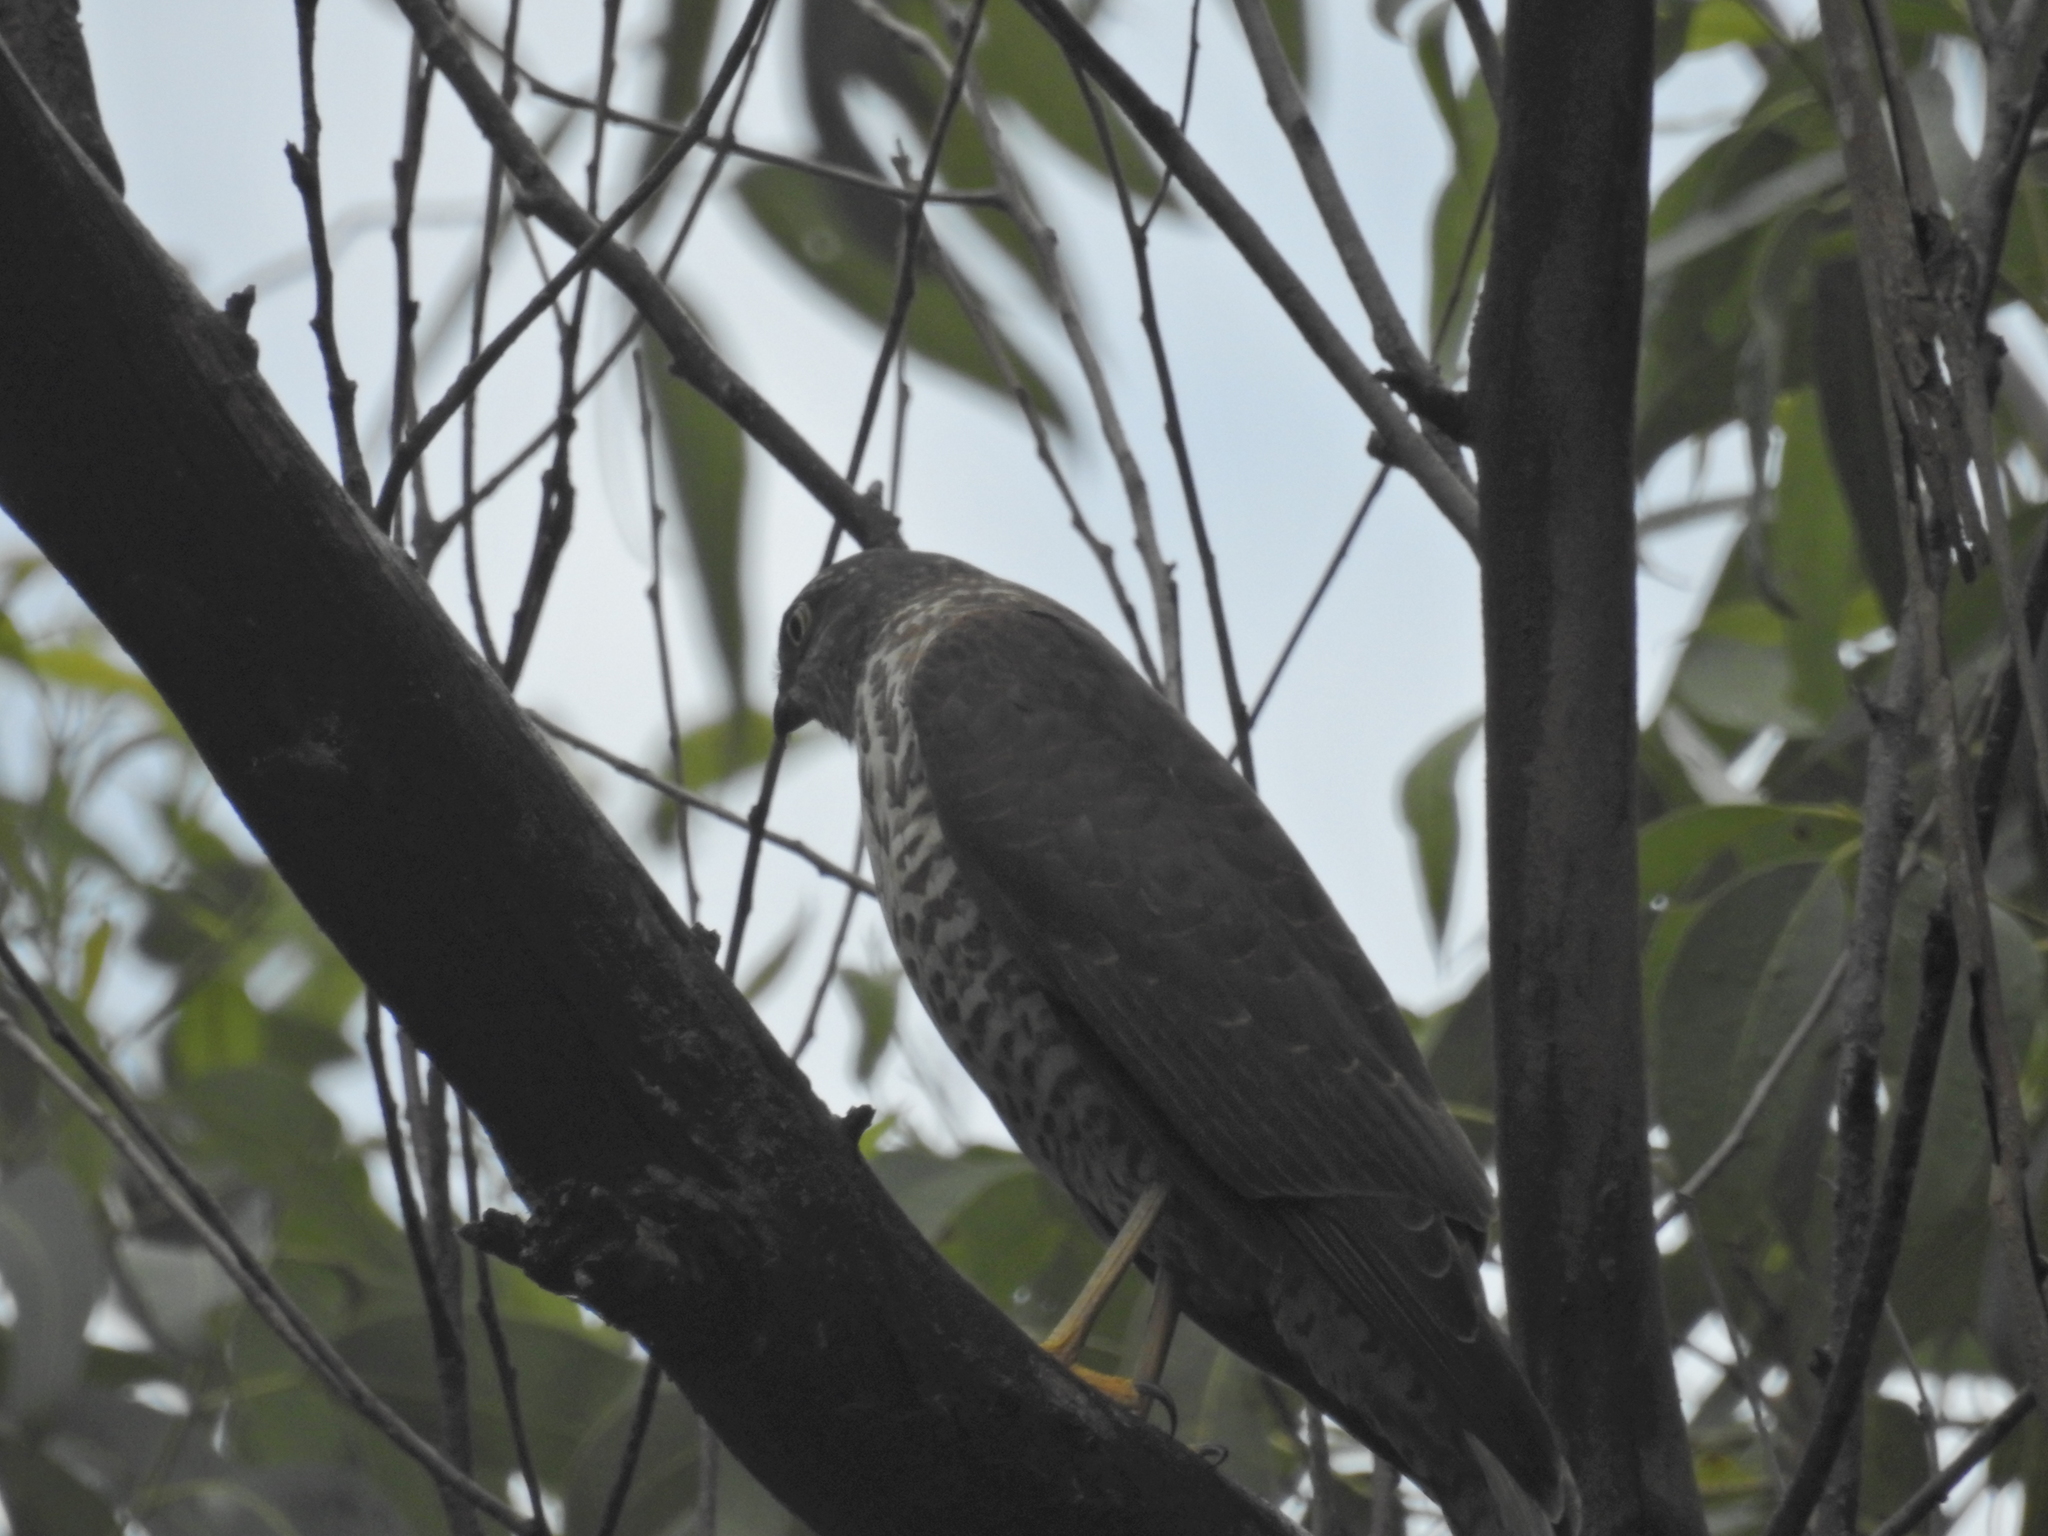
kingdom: Animalia
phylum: Chordata
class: Aves
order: Accipitriformes
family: Accipitridae
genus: Accipiter
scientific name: Accipiter cirrocephalus
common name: Collared sparrowhawk
